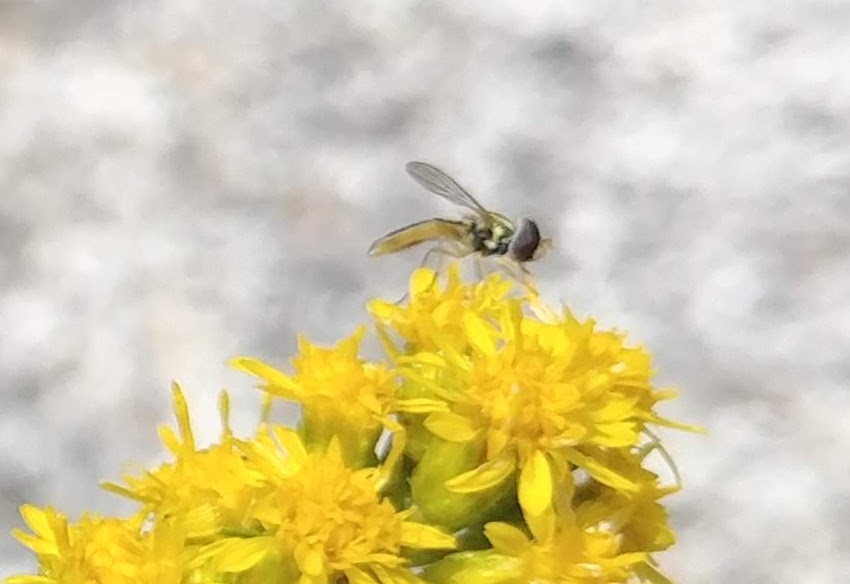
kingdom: Animalia
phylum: Arthropoda
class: Insecta
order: Diptera
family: Syrphidae
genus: Toxomerus
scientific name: Toxomerus marginatus
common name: Syrphid fly
